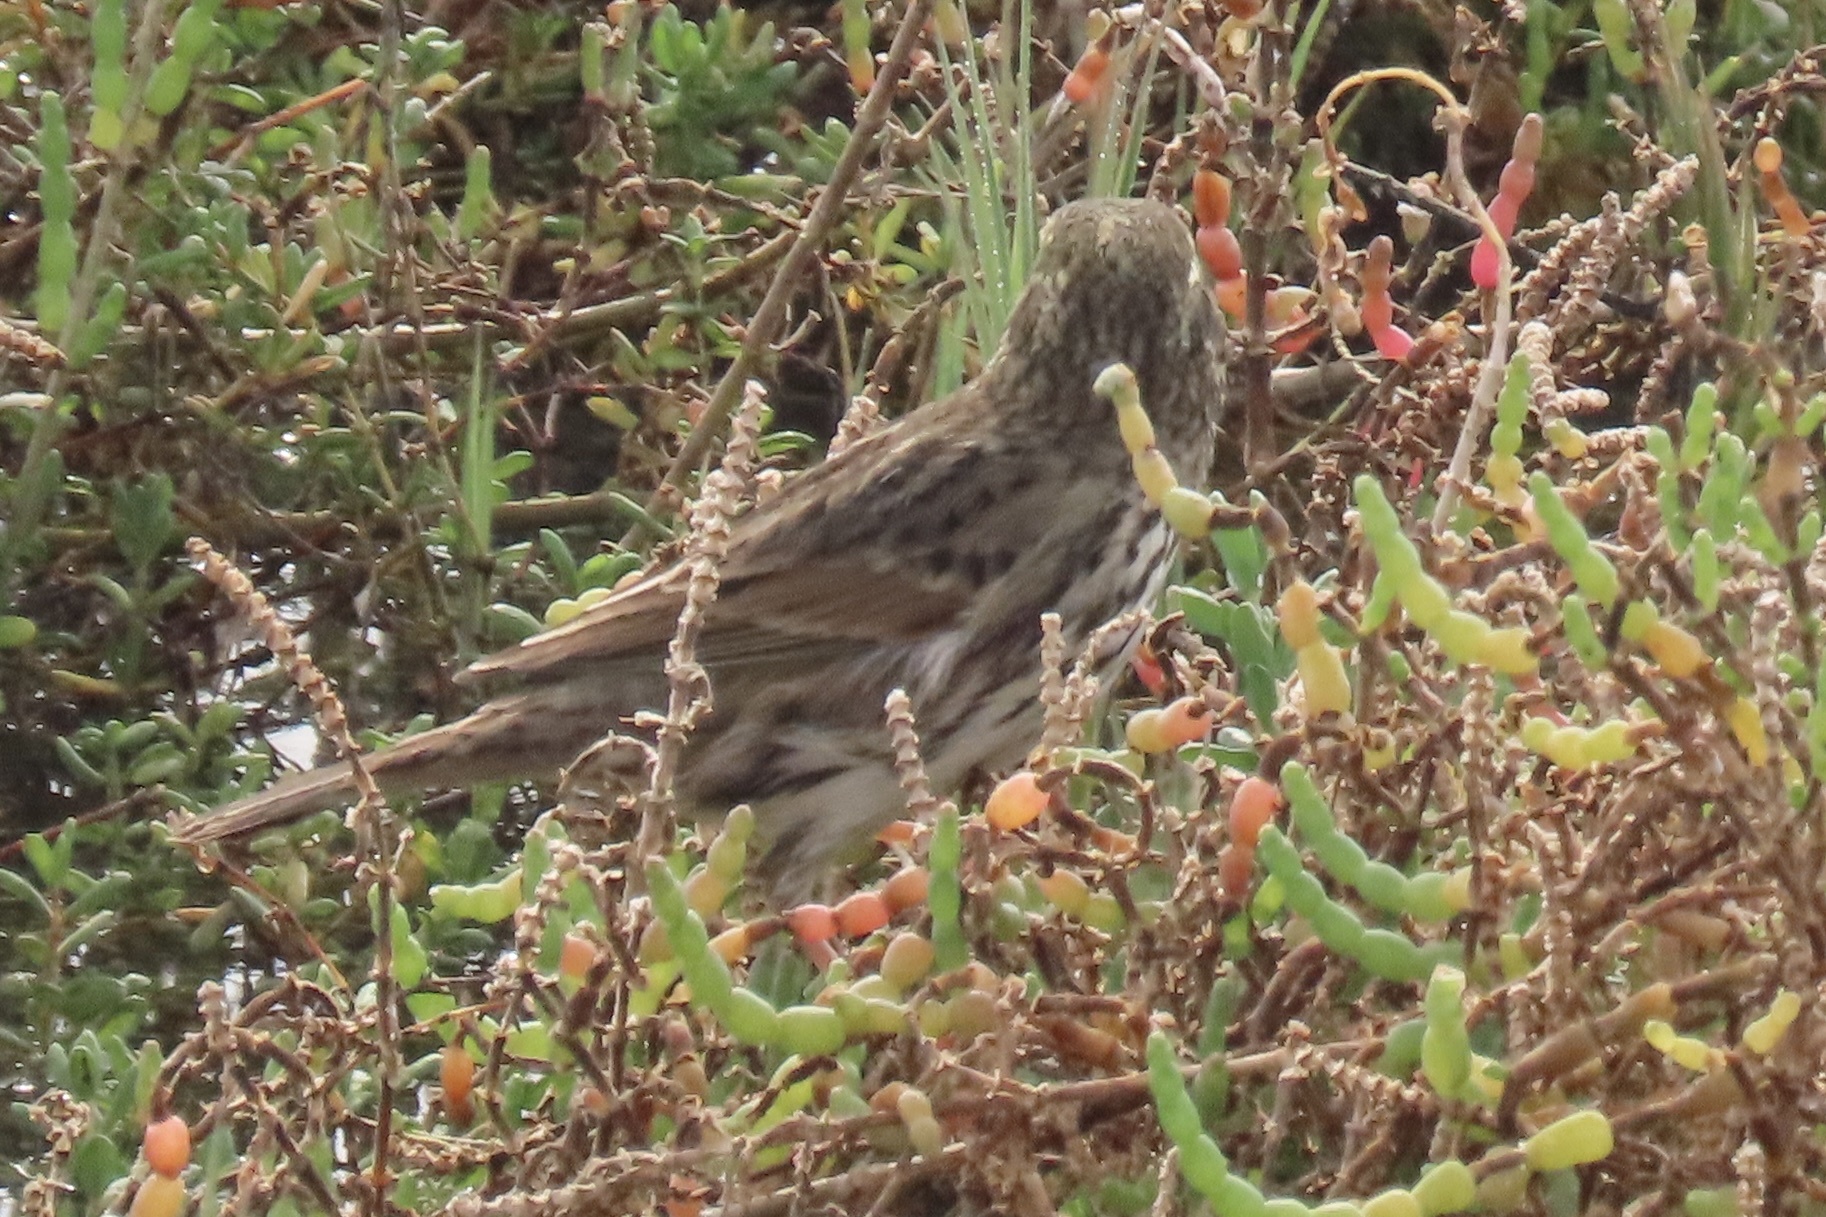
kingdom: Animalia
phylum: Chordata
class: Aves
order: Passeriformes
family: Passerellidae
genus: Melospiza
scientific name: Melospiza melodia
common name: Song sparrow
